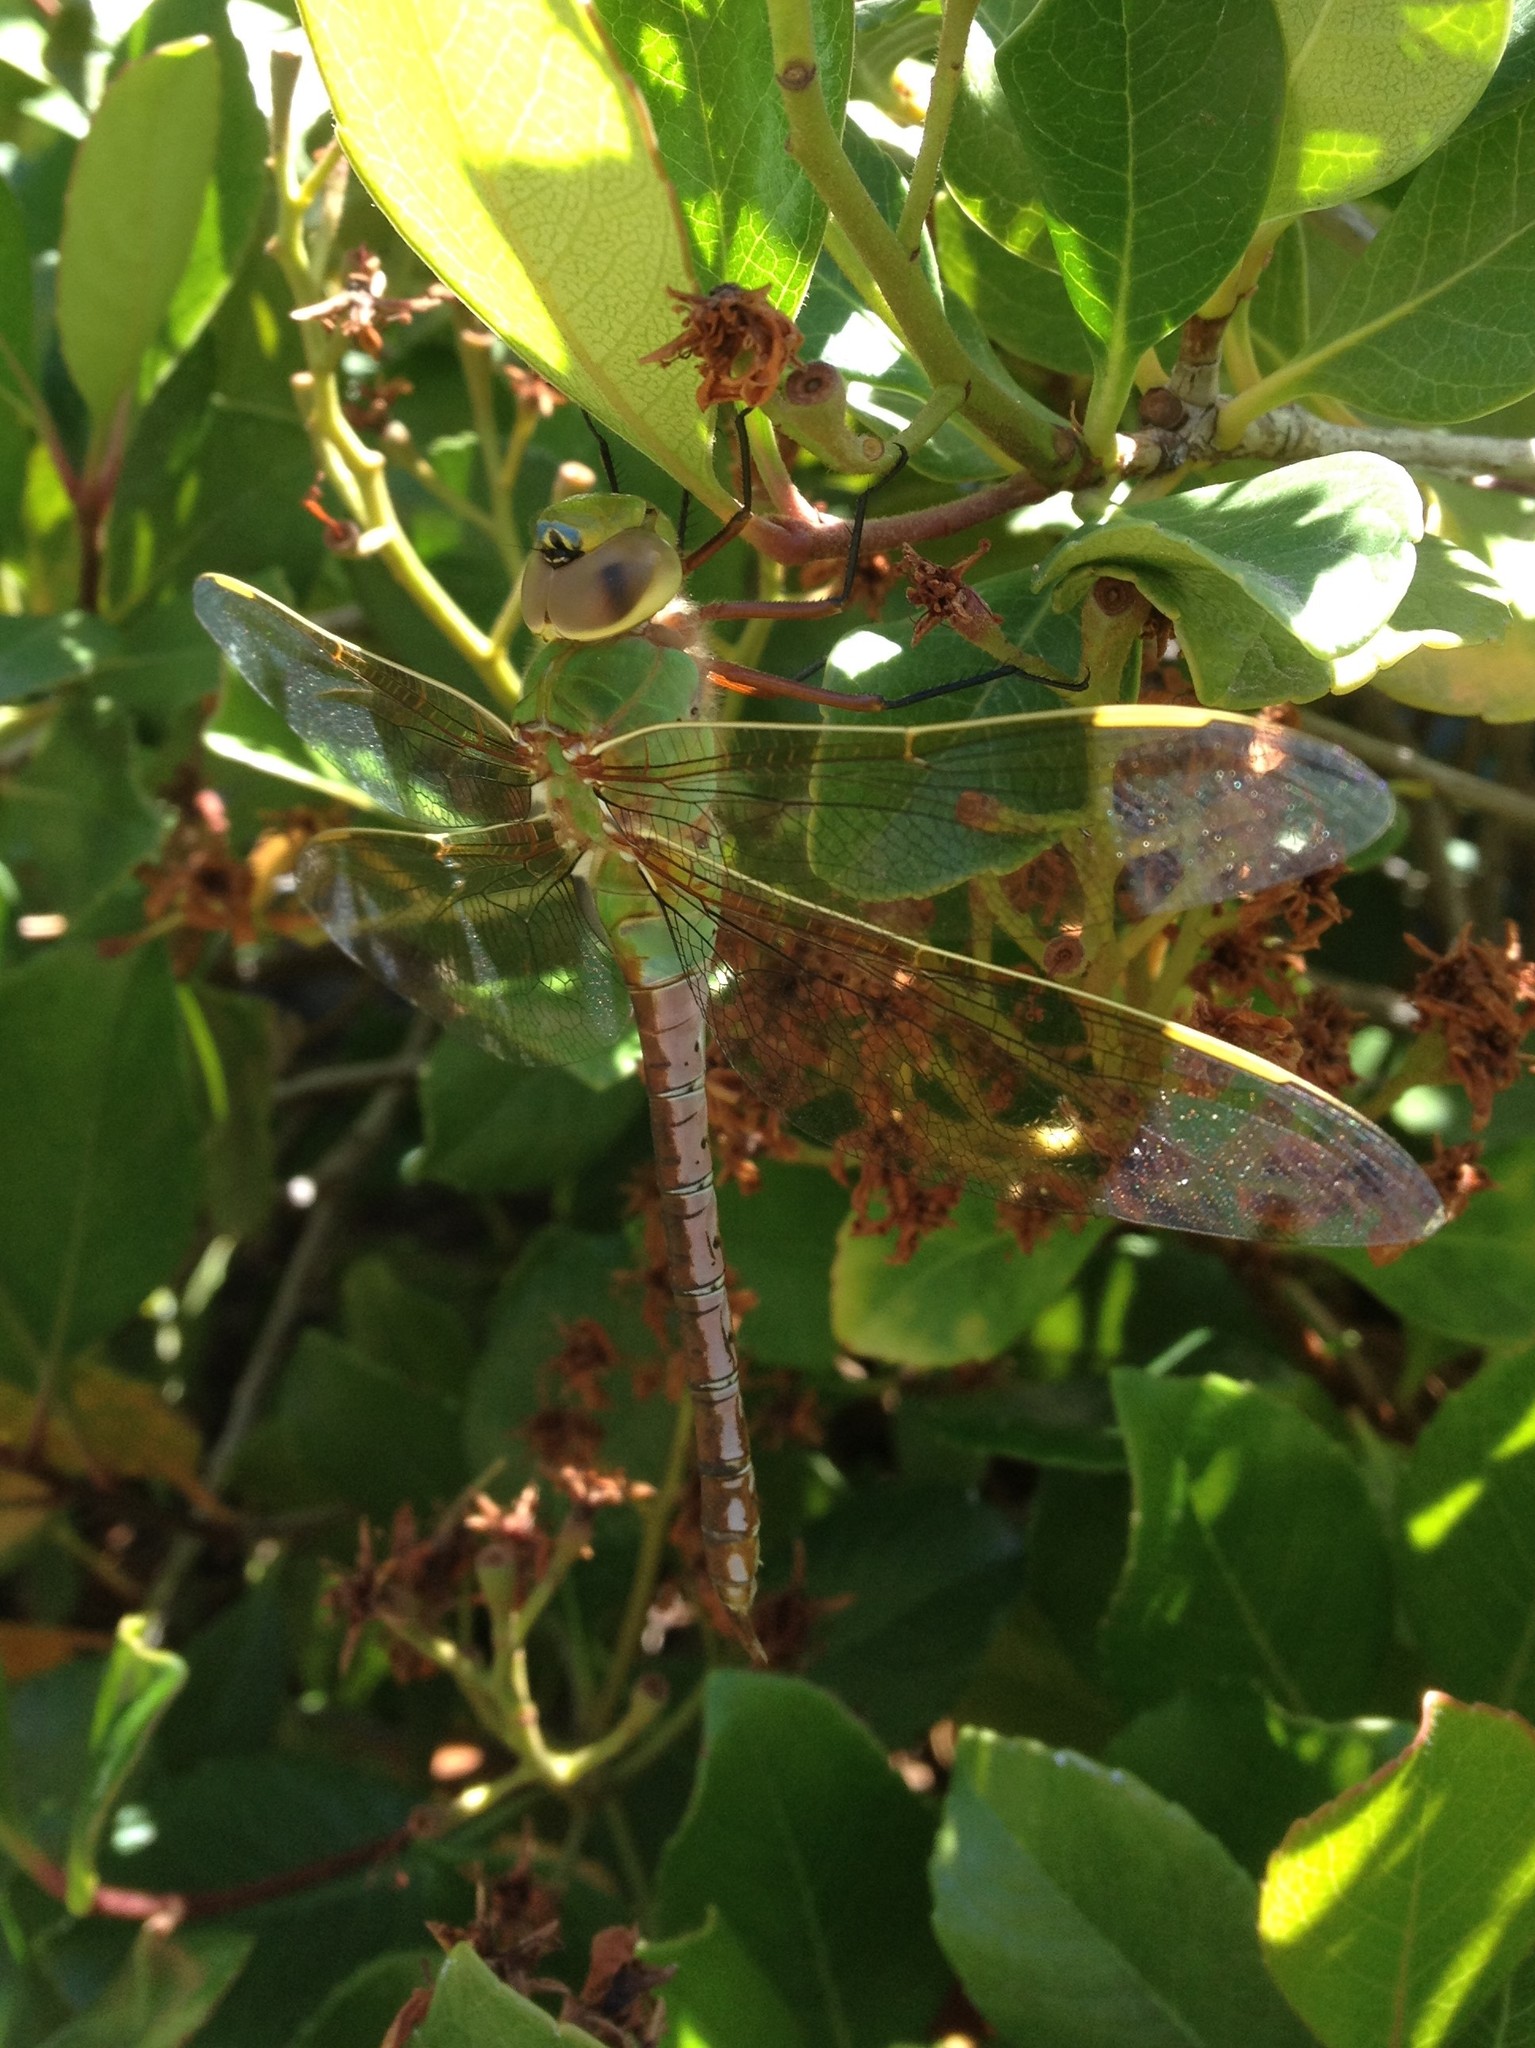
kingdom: Animalia
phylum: Arthropoda
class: Insecta
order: Odonata
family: Aeshnidae
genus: Anax
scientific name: Anax junius
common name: Common green darner
